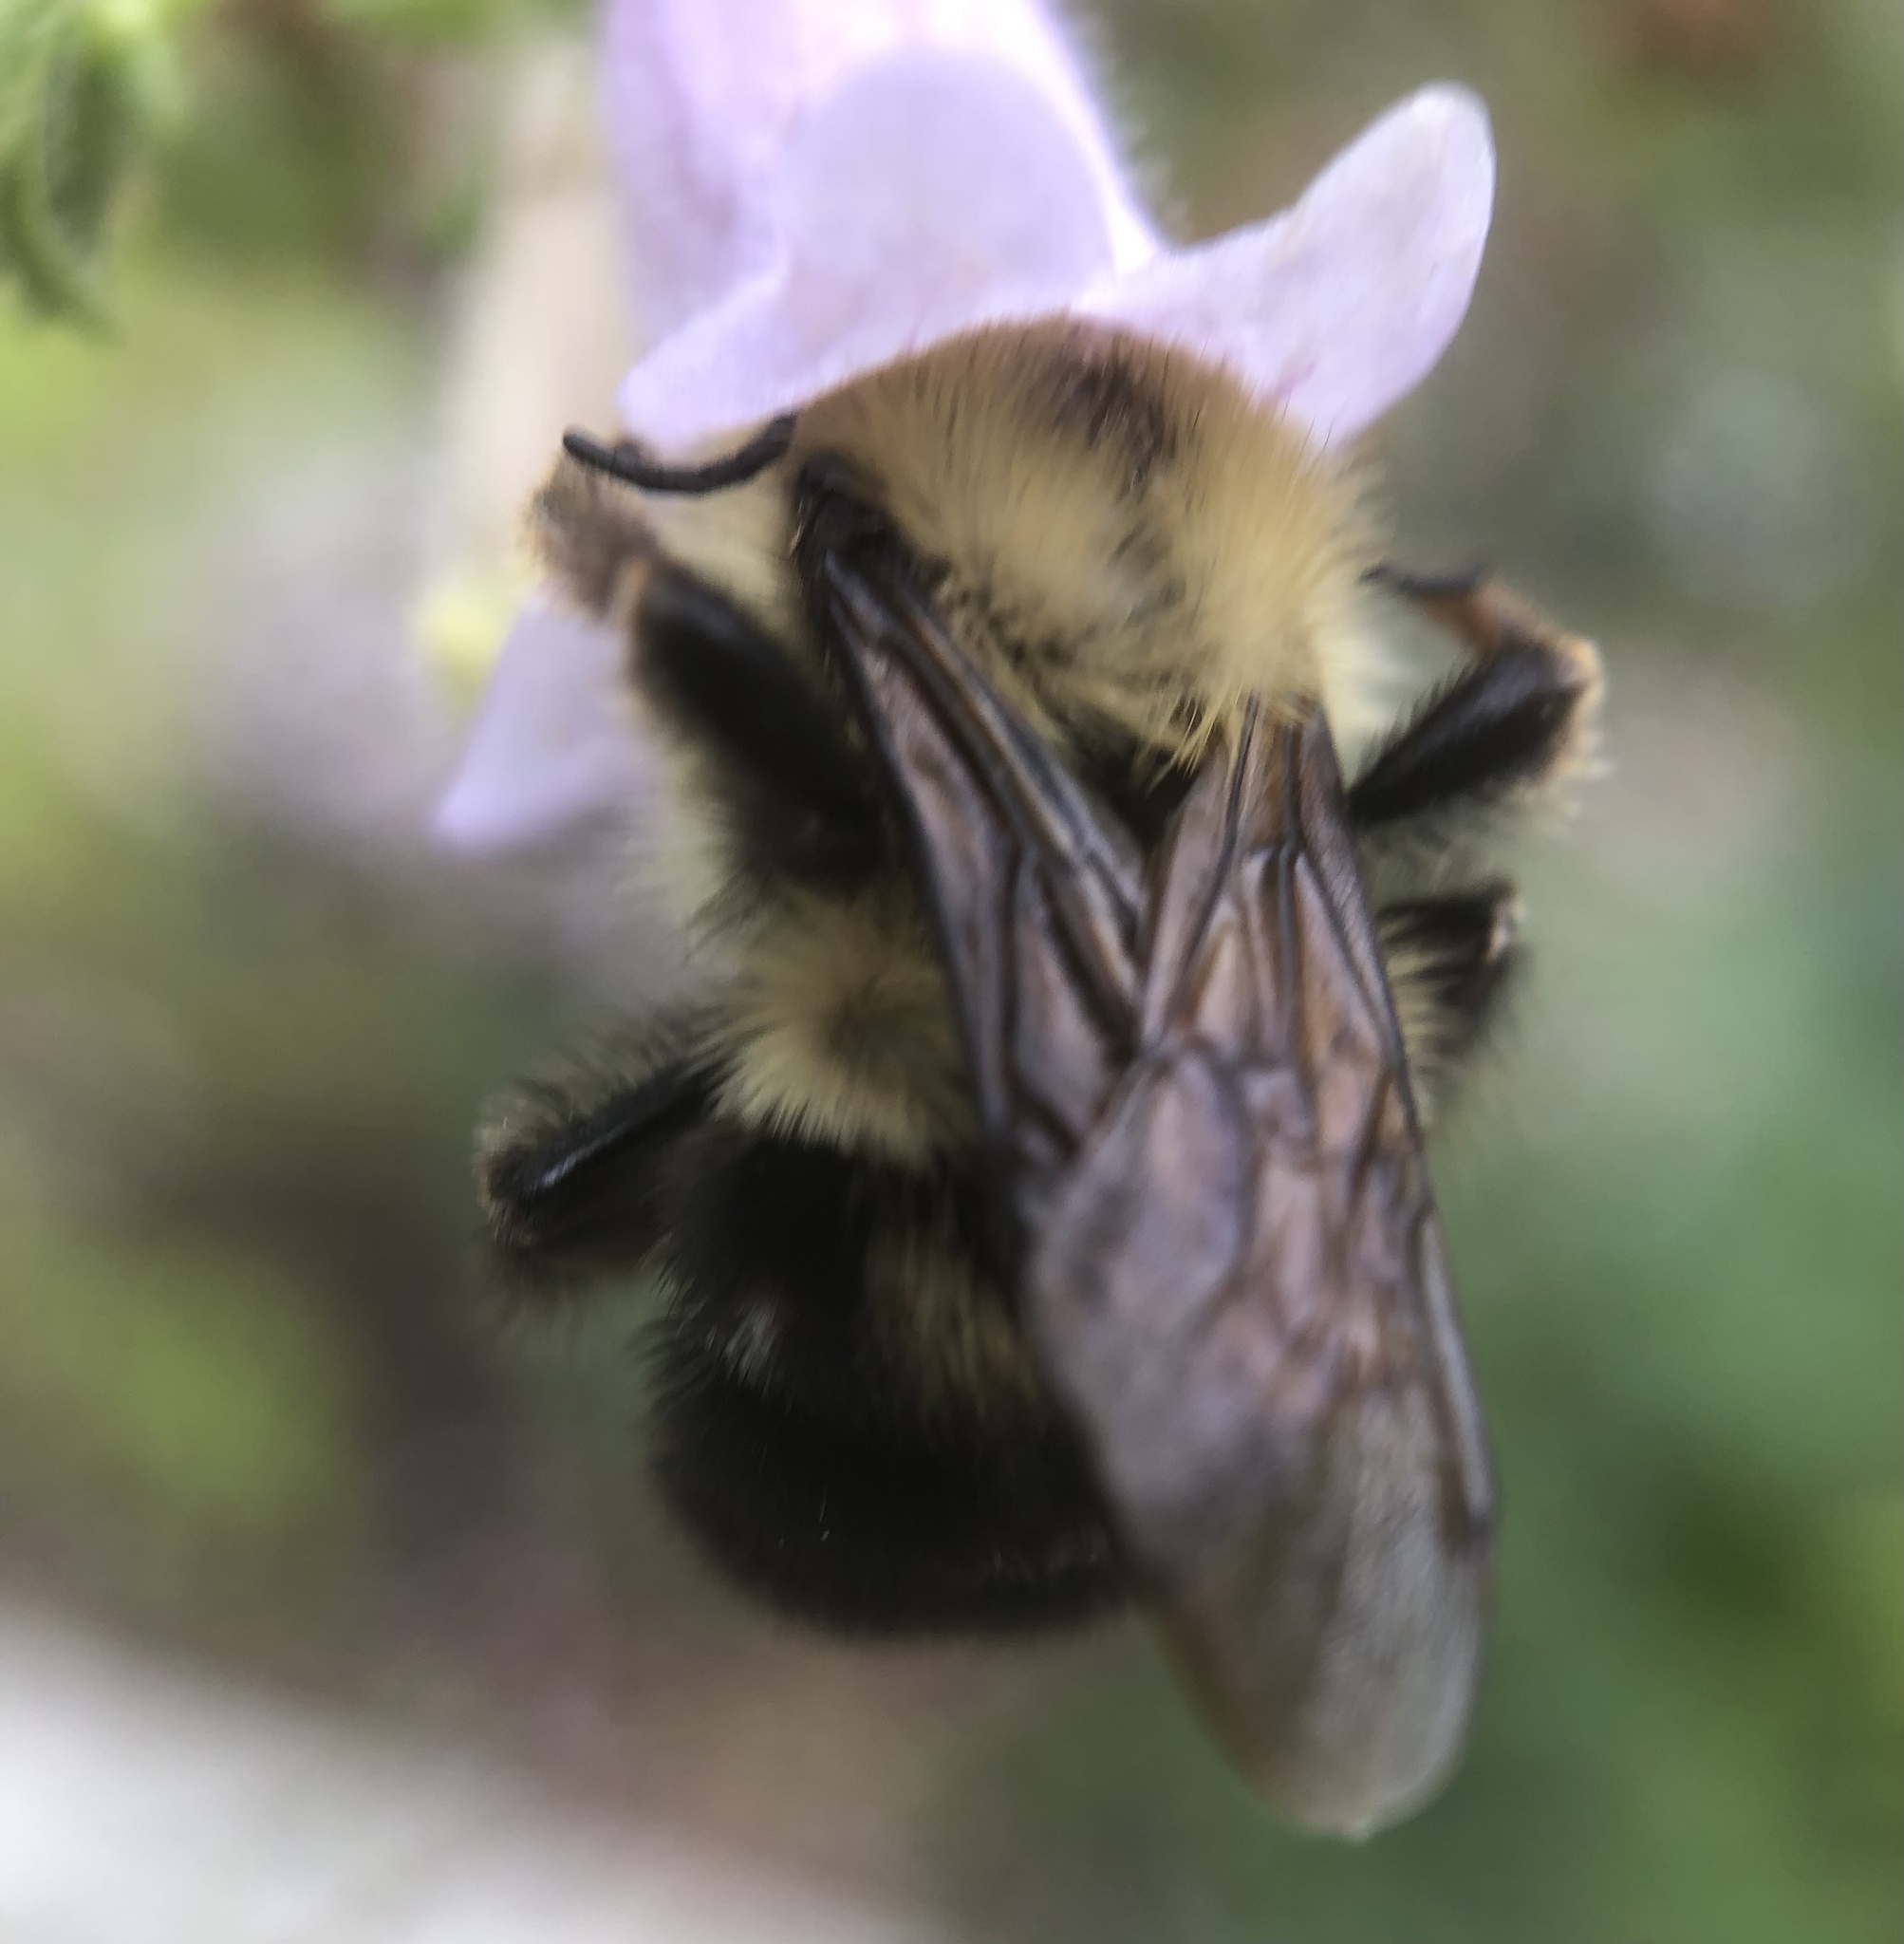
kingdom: Animalia
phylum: Arthropoda
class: Insecta
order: Hymenoptera
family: Apidae
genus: Bombus
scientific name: Bombus bimaculatus
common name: Two-spotted bumble bee
